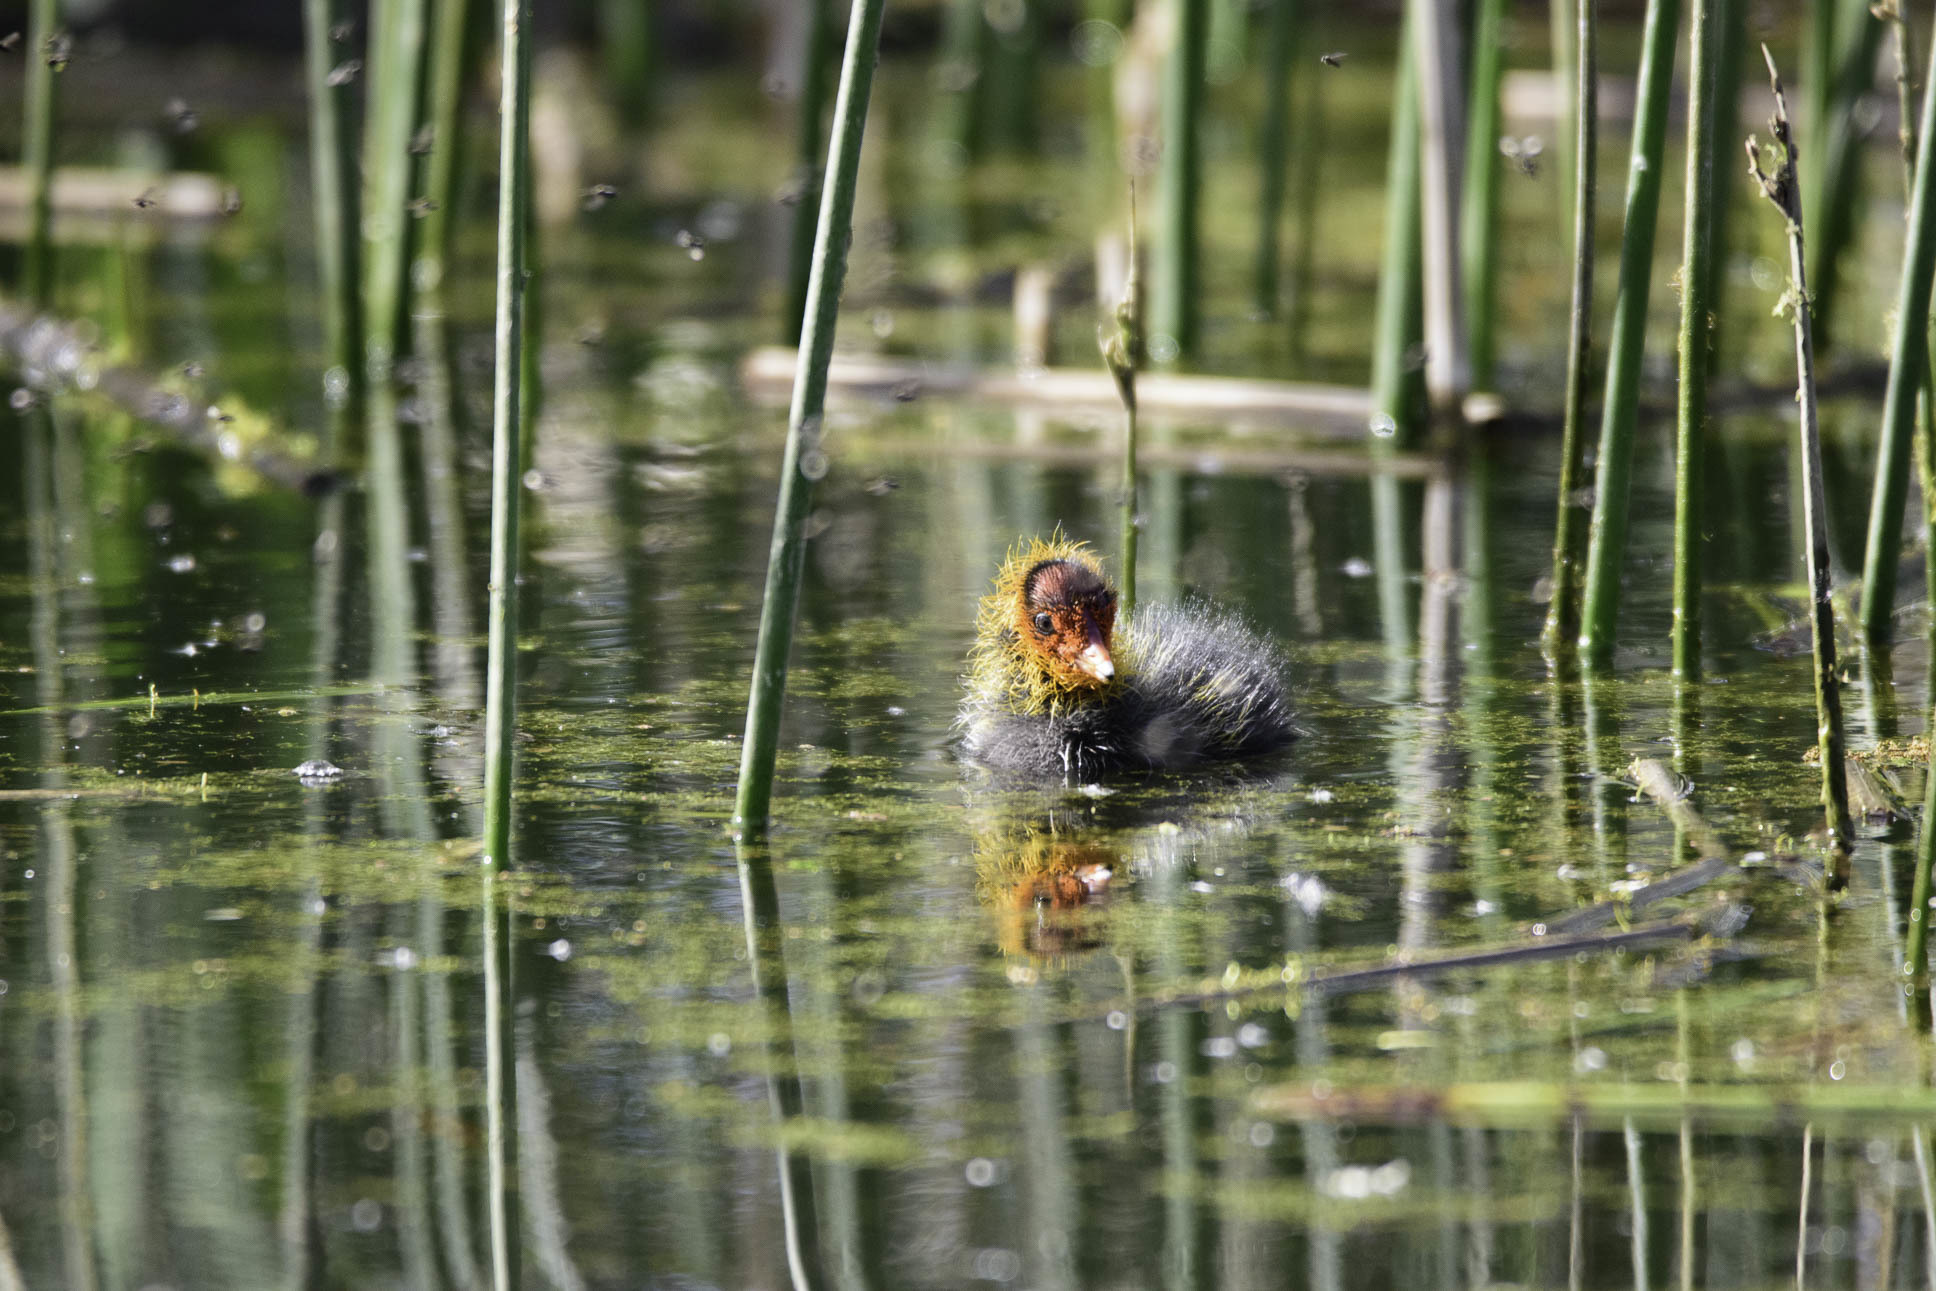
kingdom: Animalia
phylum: Chordata
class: Aves
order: Gruiformes
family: Rallidae
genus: Fulica
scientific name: Fulica atra
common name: Eurasian coot
